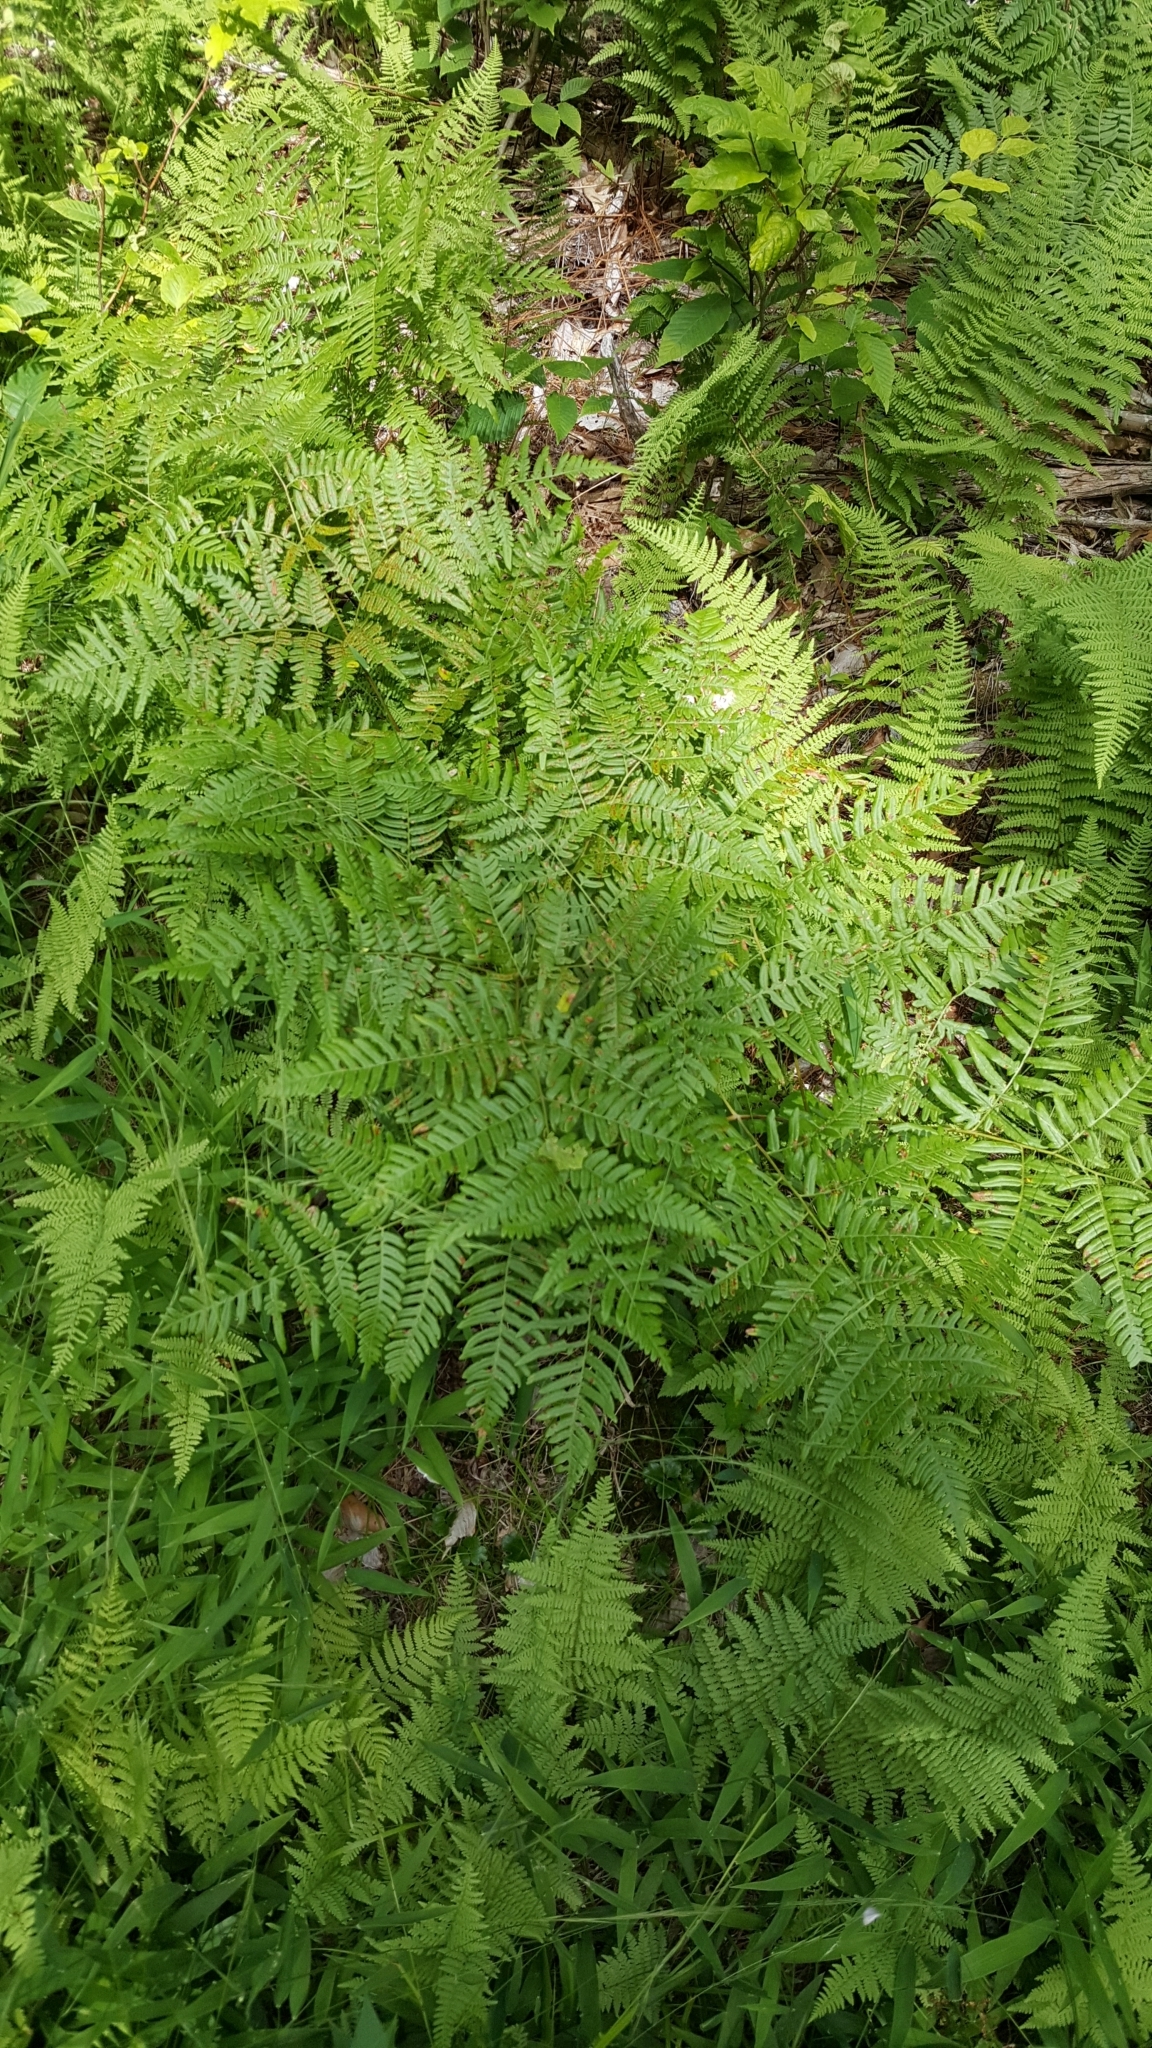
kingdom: Plantae
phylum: Tracheophyta
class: Polypodiopsida
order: Polypodiales
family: Dennstaedtiaceae
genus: Pteridium
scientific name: Pteridium aquilinum
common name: Bracken
